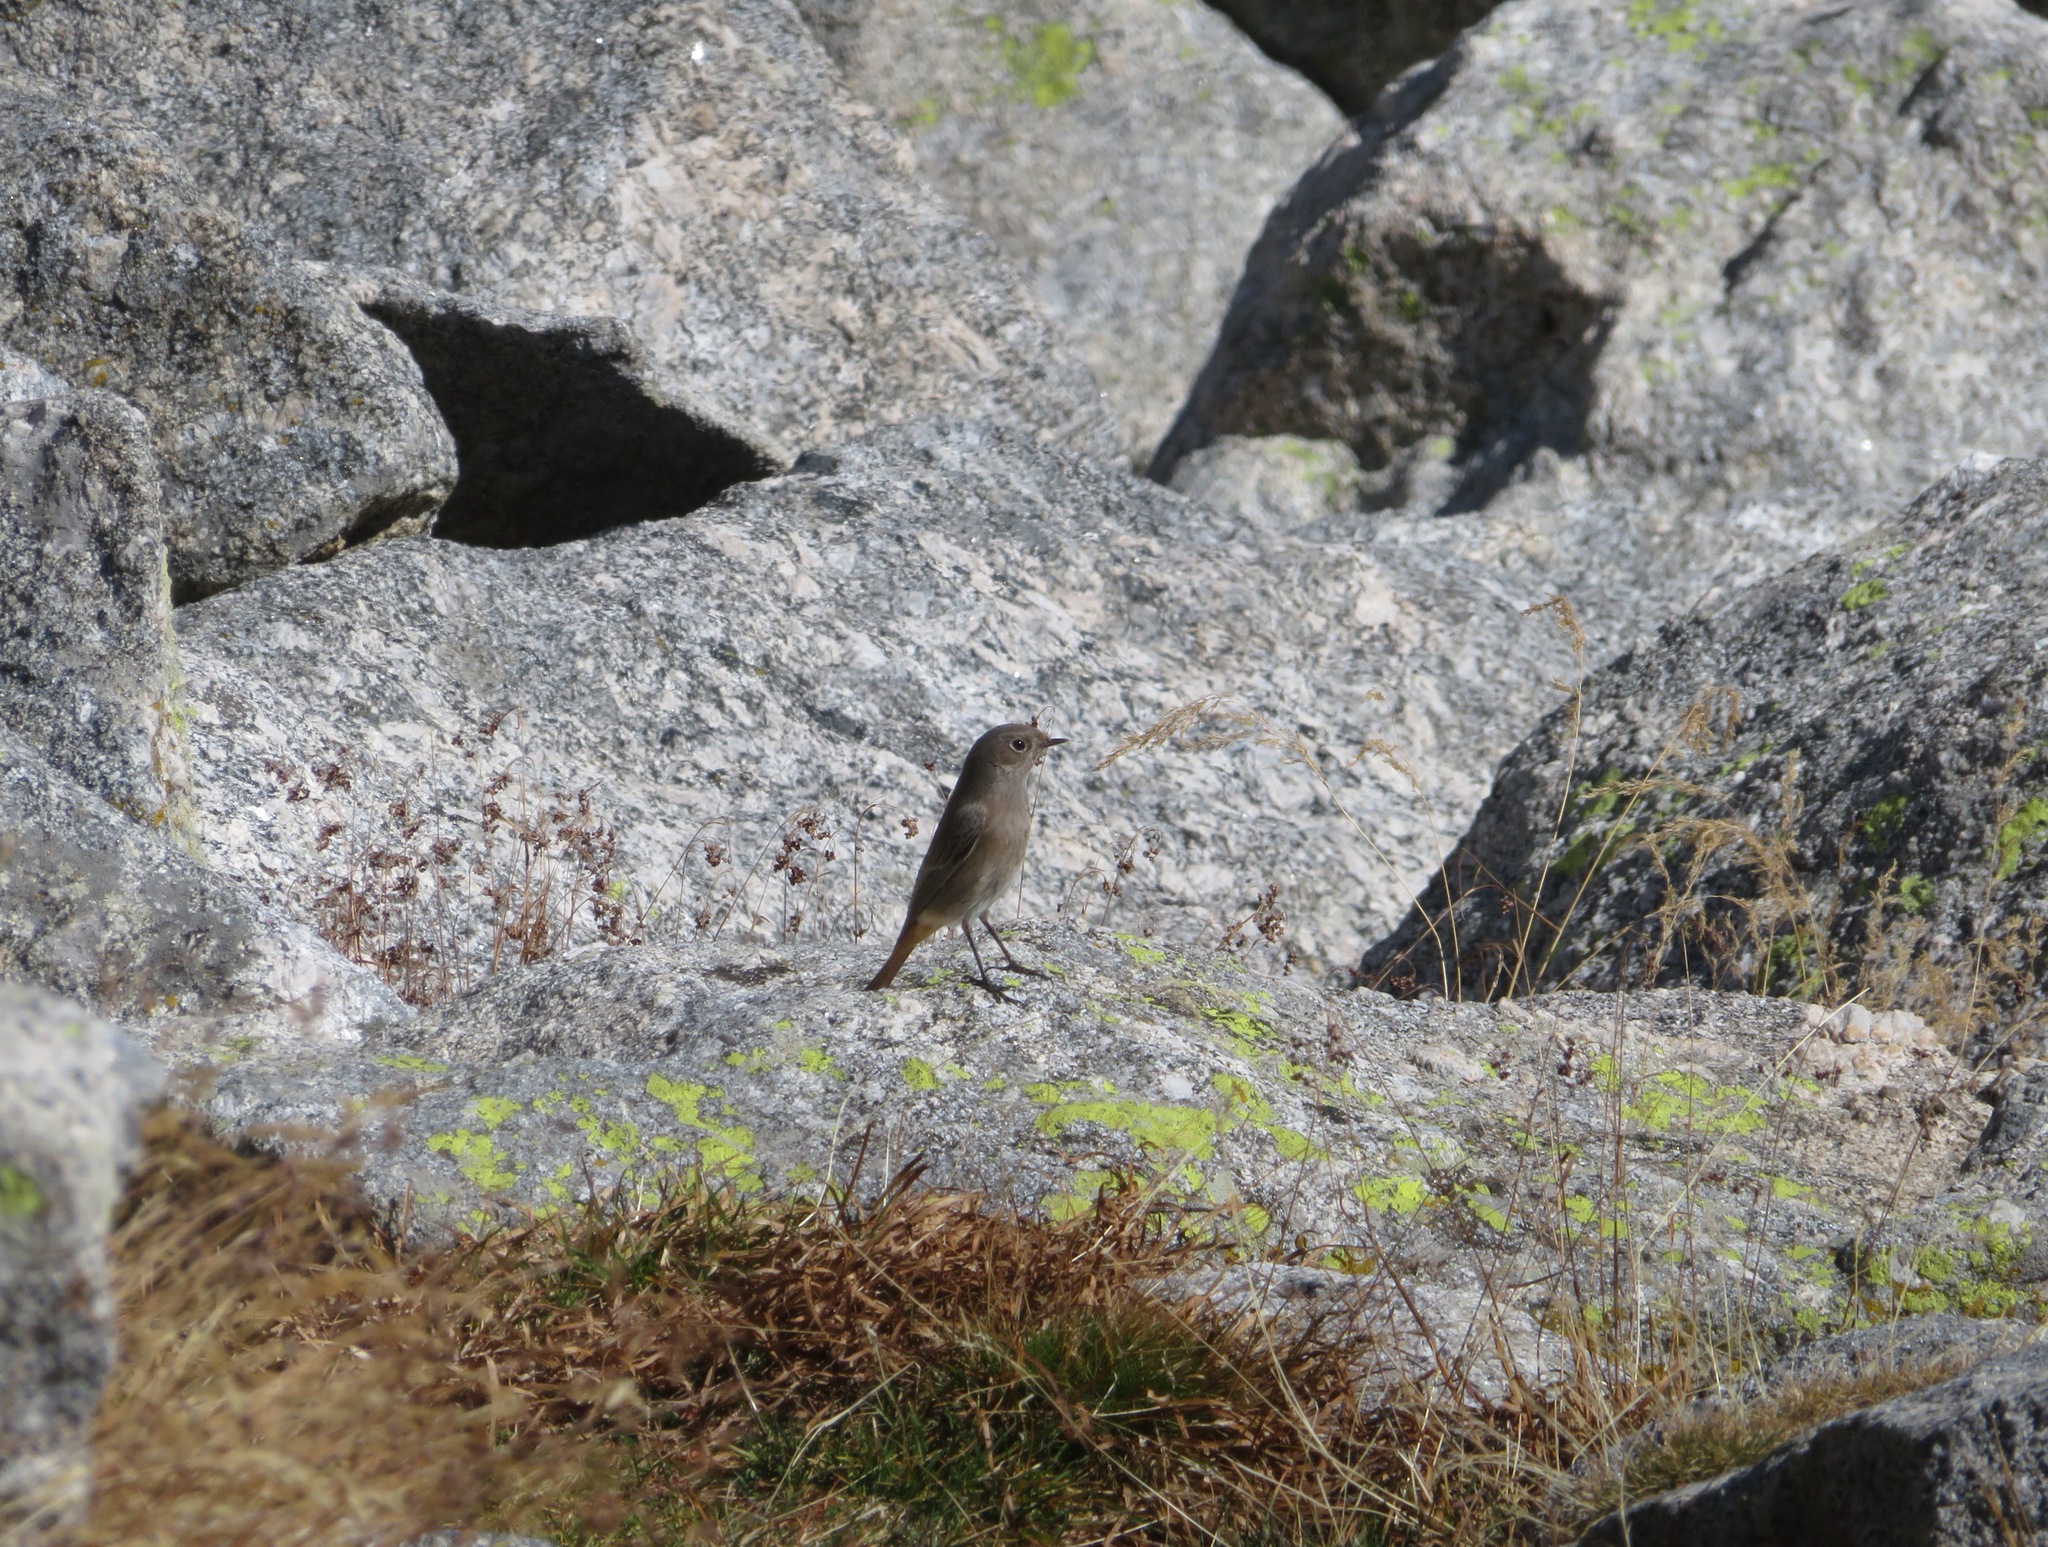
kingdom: Animalia
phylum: Chordata
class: Aves
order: Passeriformes
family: Muscicapidae
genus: Phoenicurus
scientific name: Phoenicurus ochruros
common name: Black redstart
